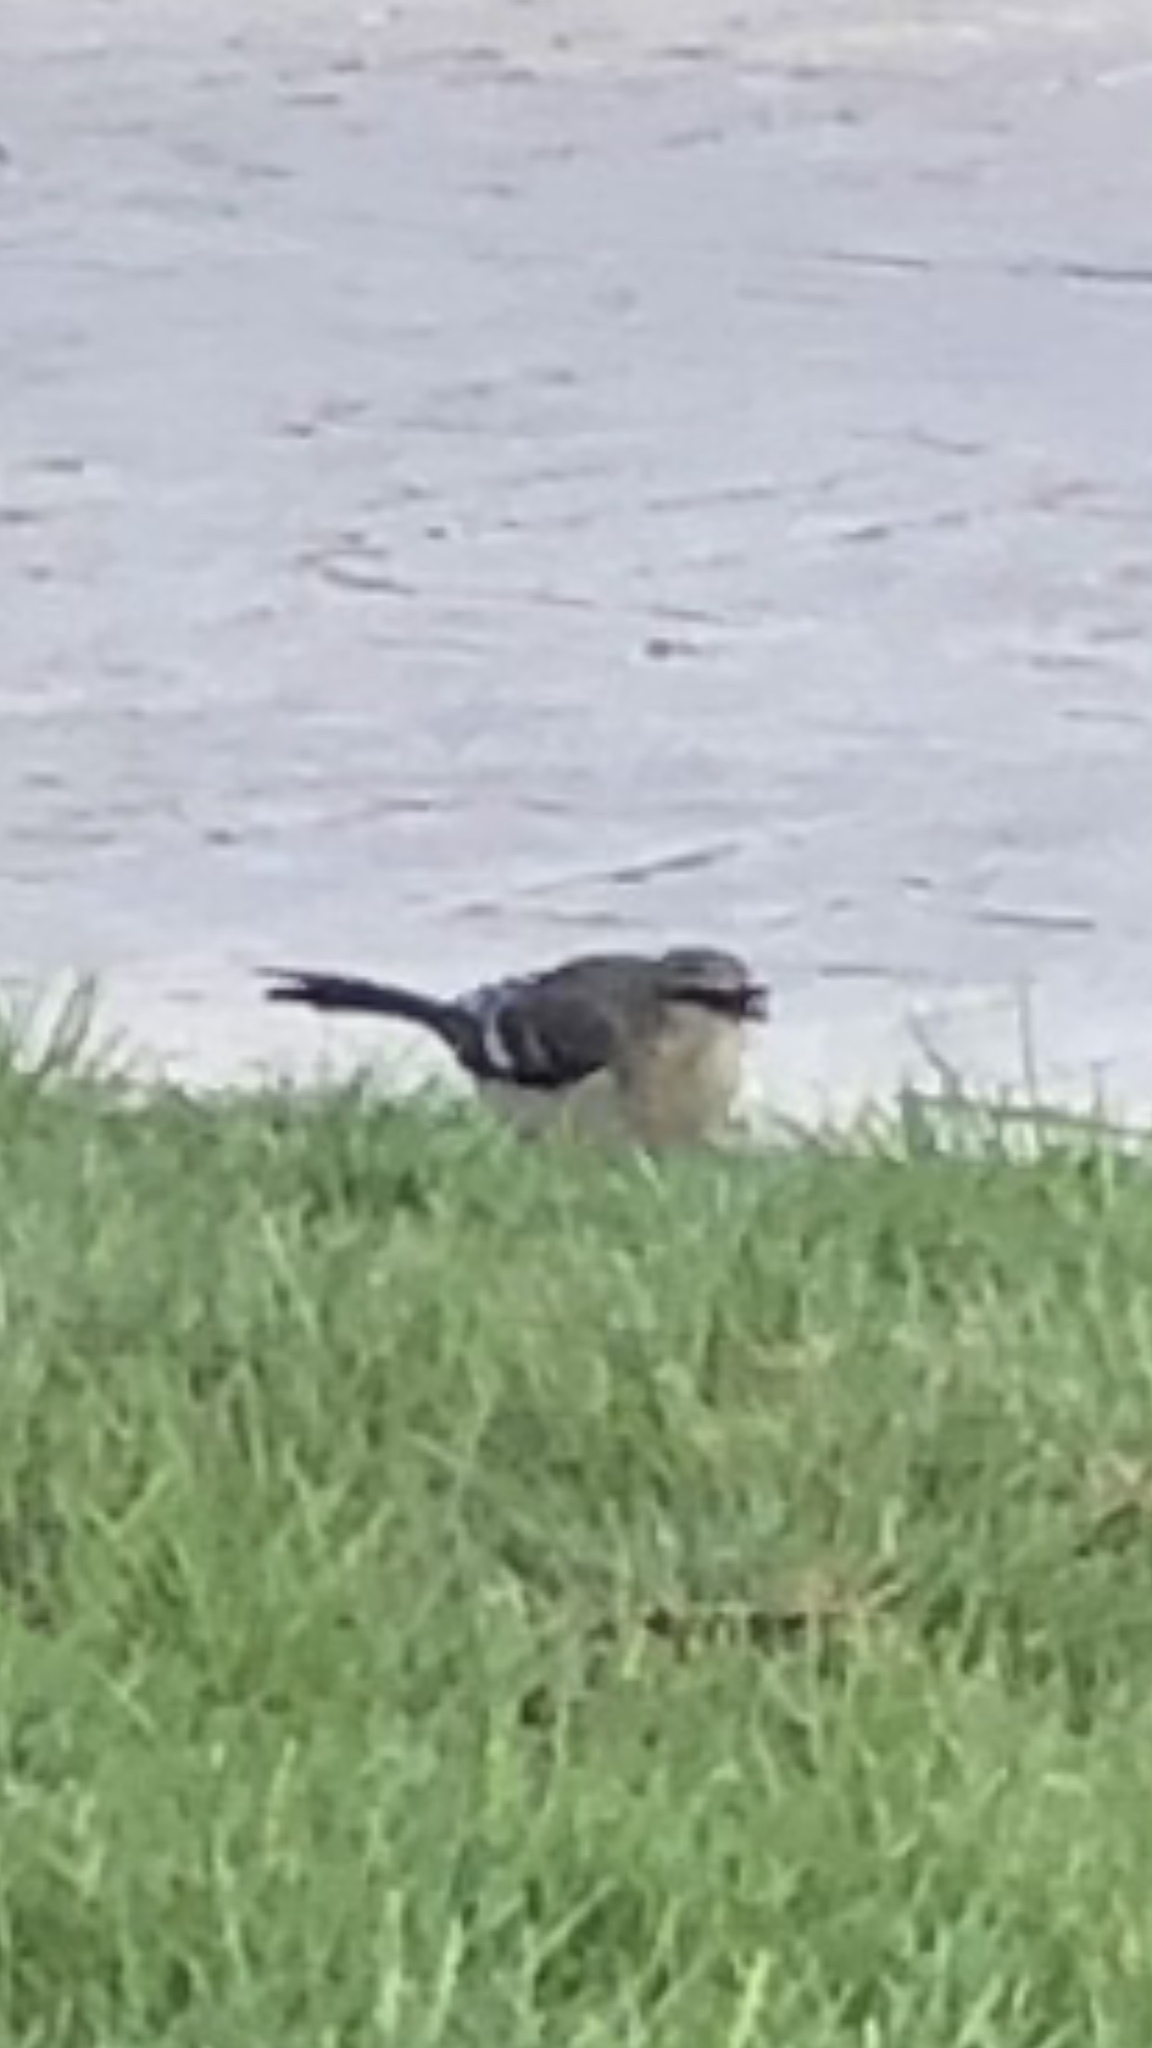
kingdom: Animalia
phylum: Chordata
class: Aves
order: Passeriformes
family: Mimidae
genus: Mimus
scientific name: Mimus polyglottos
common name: Northern mockingbird
